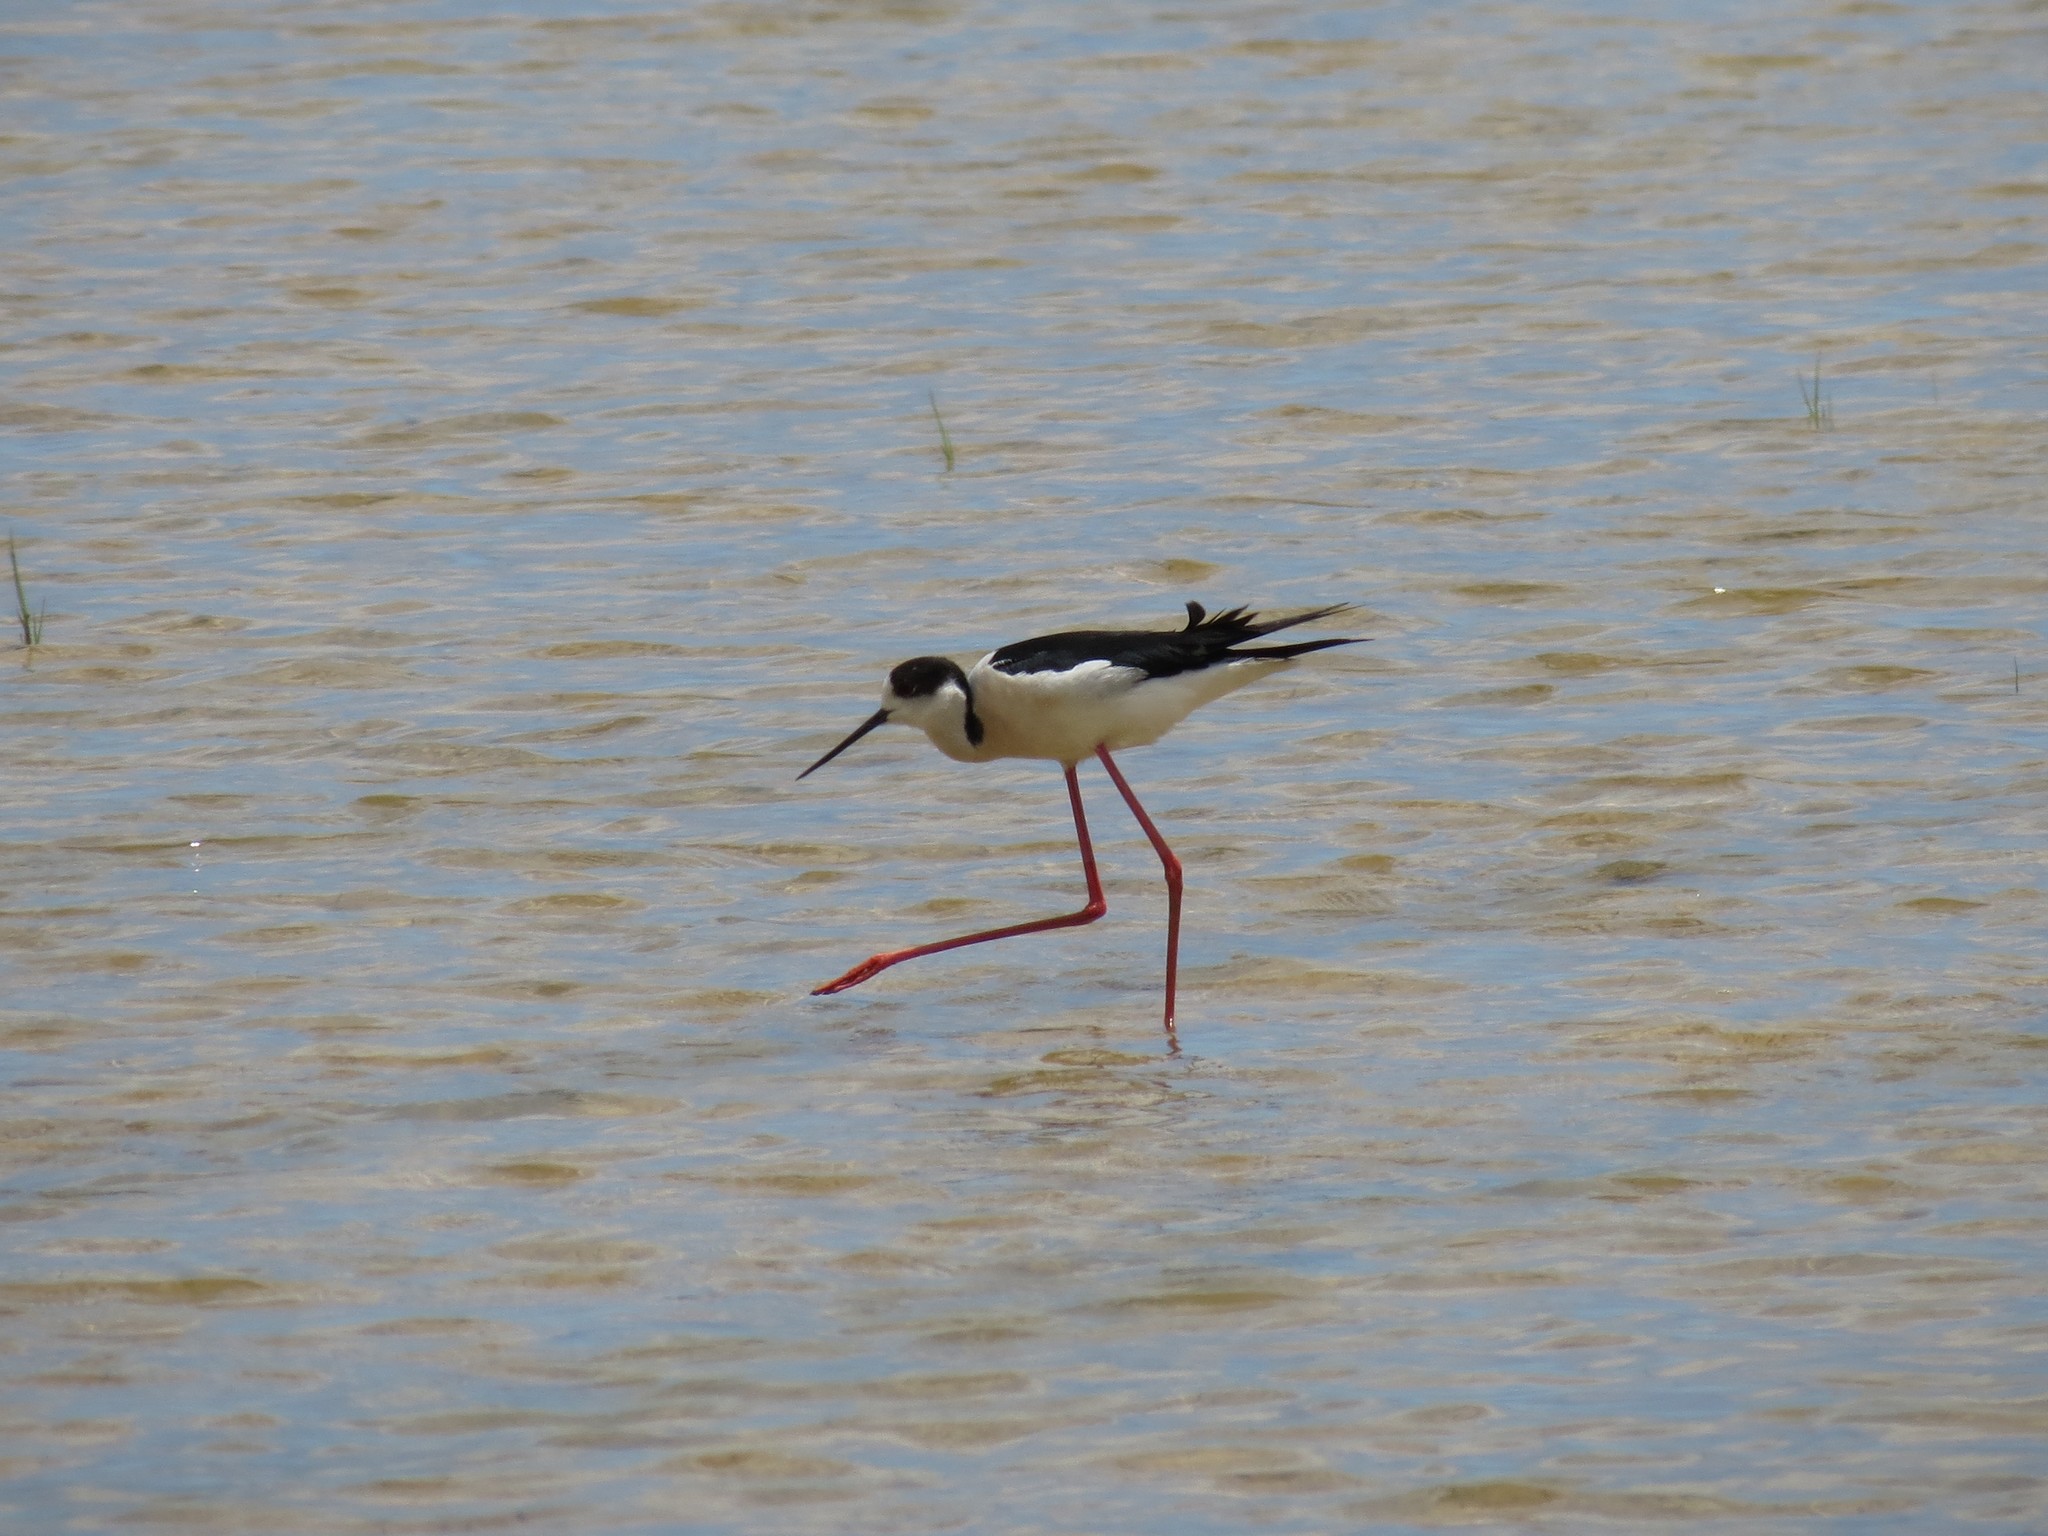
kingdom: Animalia
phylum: Chordata
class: Aves
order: Charadriiformes
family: Recurvirostridae
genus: Himantopus
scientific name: Himantopus himantopus
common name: Black-winged stilt
